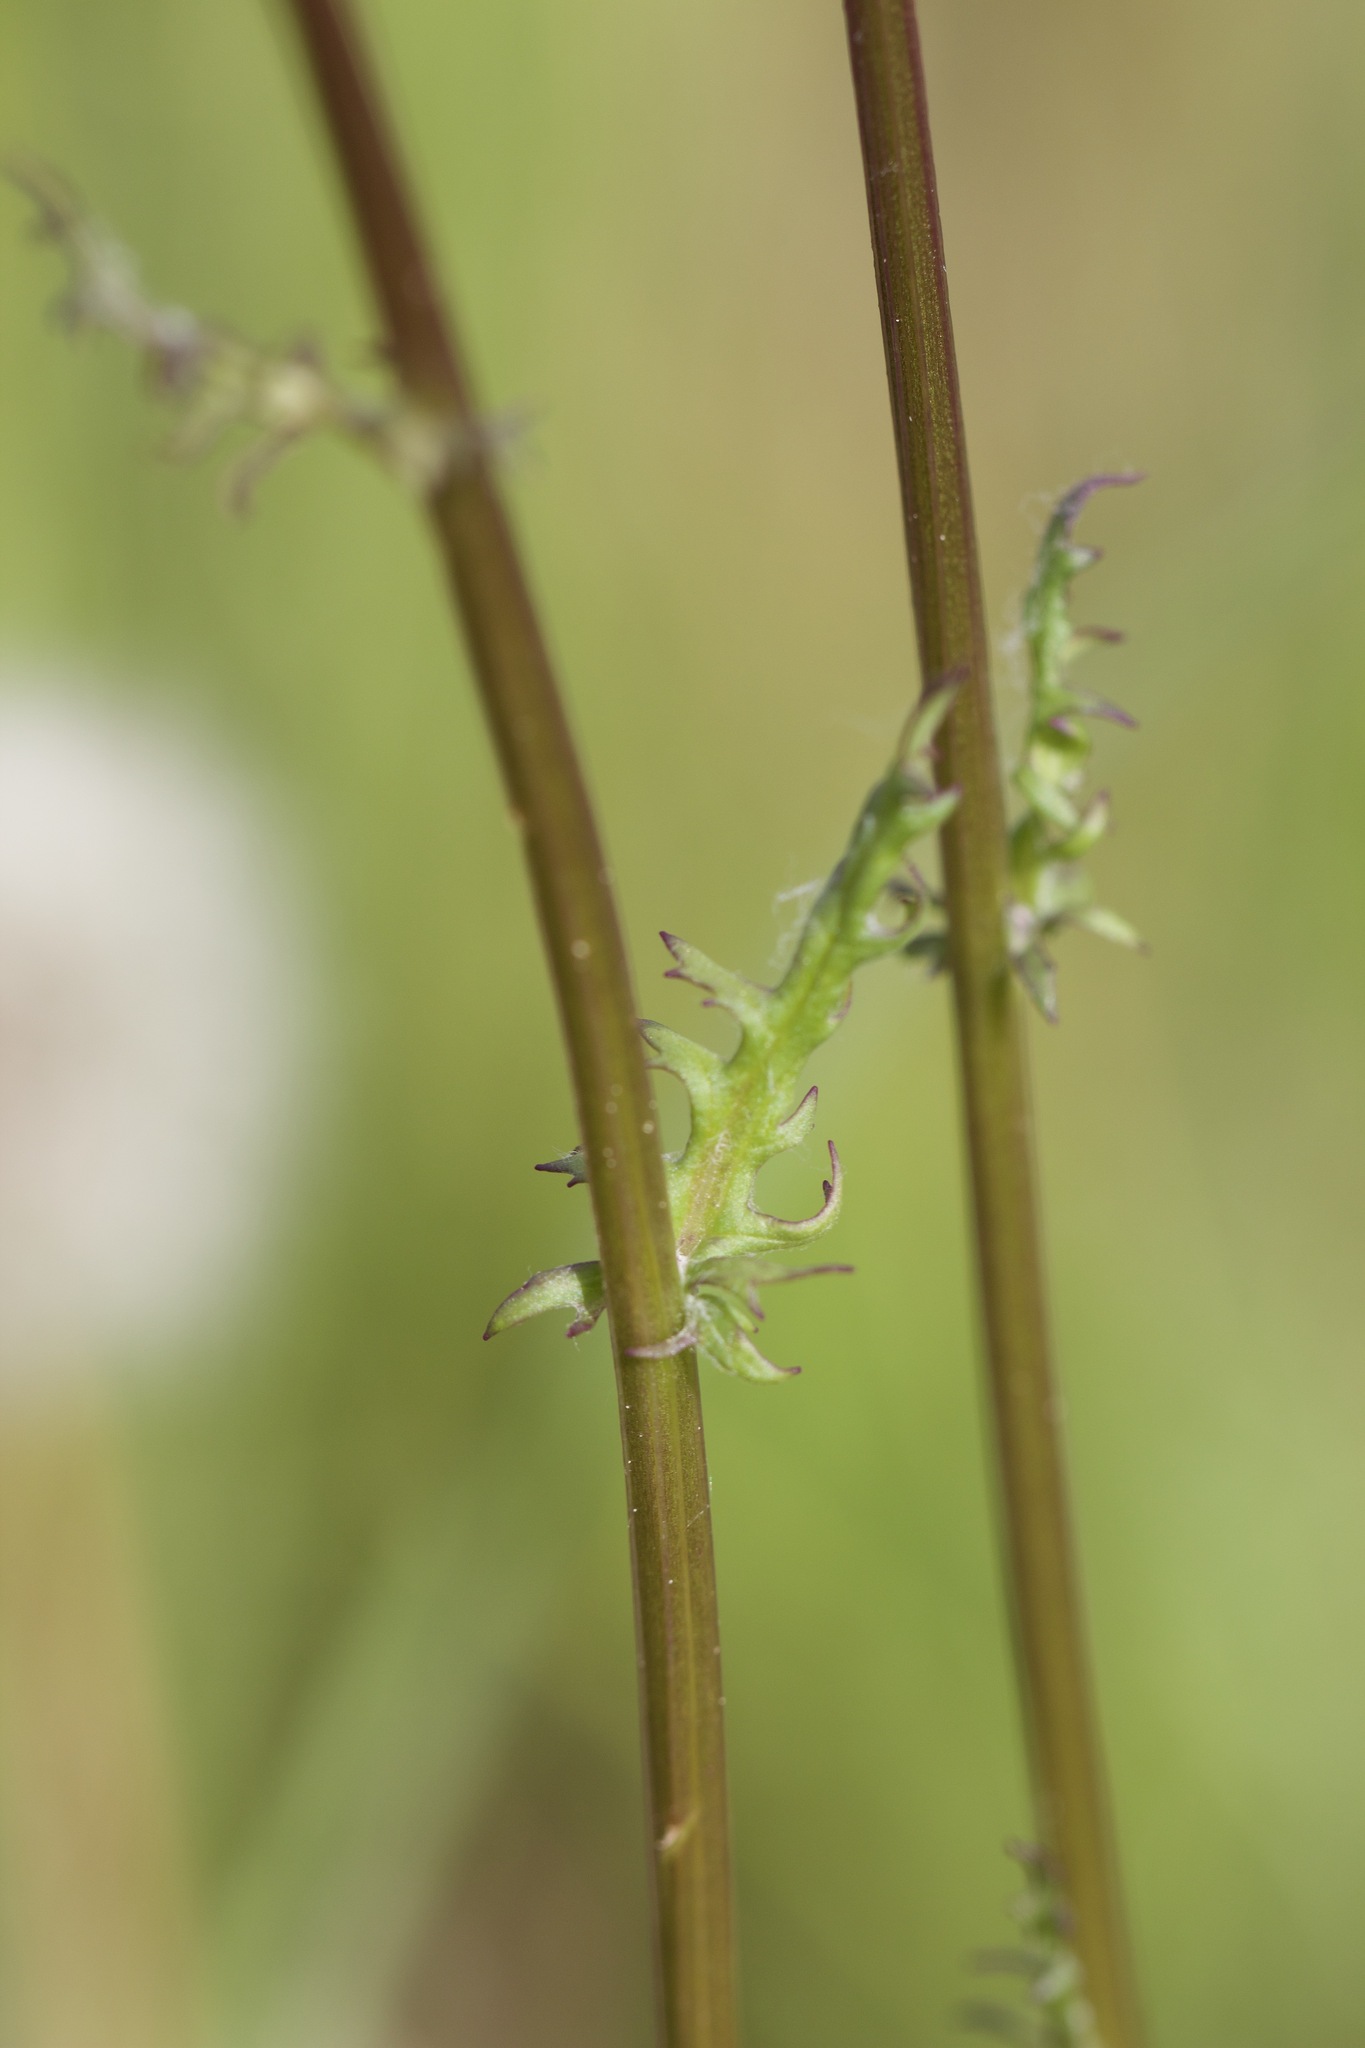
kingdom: Plantae
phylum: Tracheophyta
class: Magnoliopsida
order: Asterales
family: Asteraceae
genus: Packera
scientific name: Packera pauciflora
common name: Alpine groundsel
